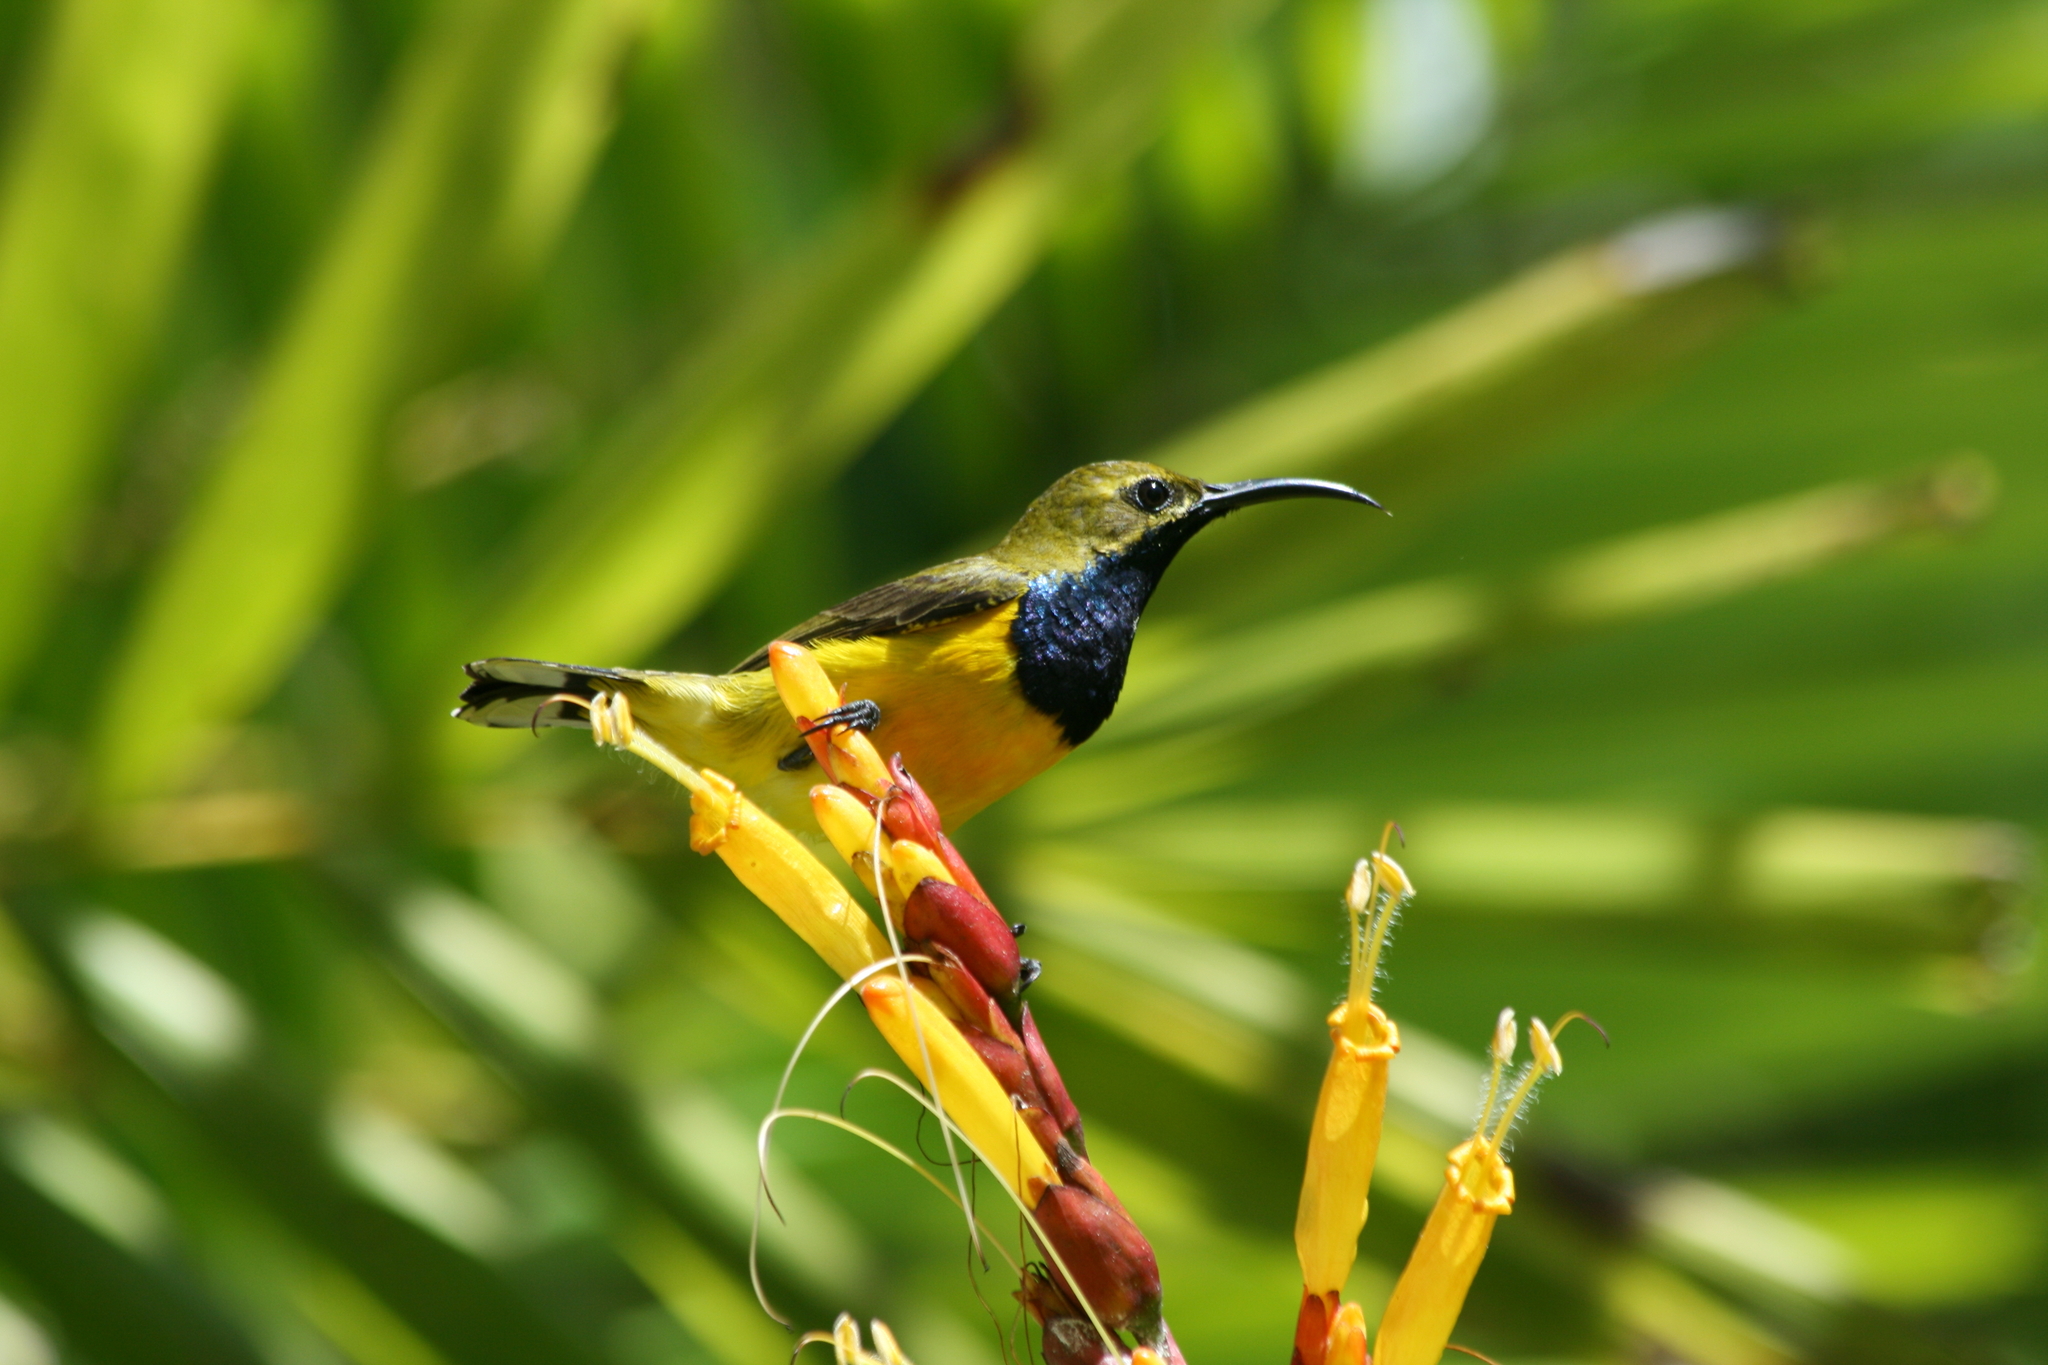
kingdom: Animalia
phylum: Chordata
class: Aves
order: Passeriformes
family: Nectariniidae
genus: Cinnyris
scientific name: Cinnyris
